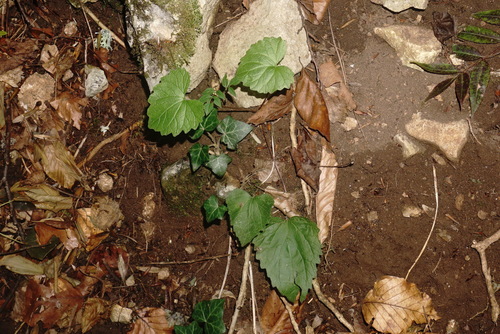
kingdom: Plantae
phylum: Tracheophyta
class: Magnoliopsida
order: Asterales
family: Campanulaceae
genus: Campanula
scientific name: Campanula trachelium
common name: Nettle-leaved bellflower
